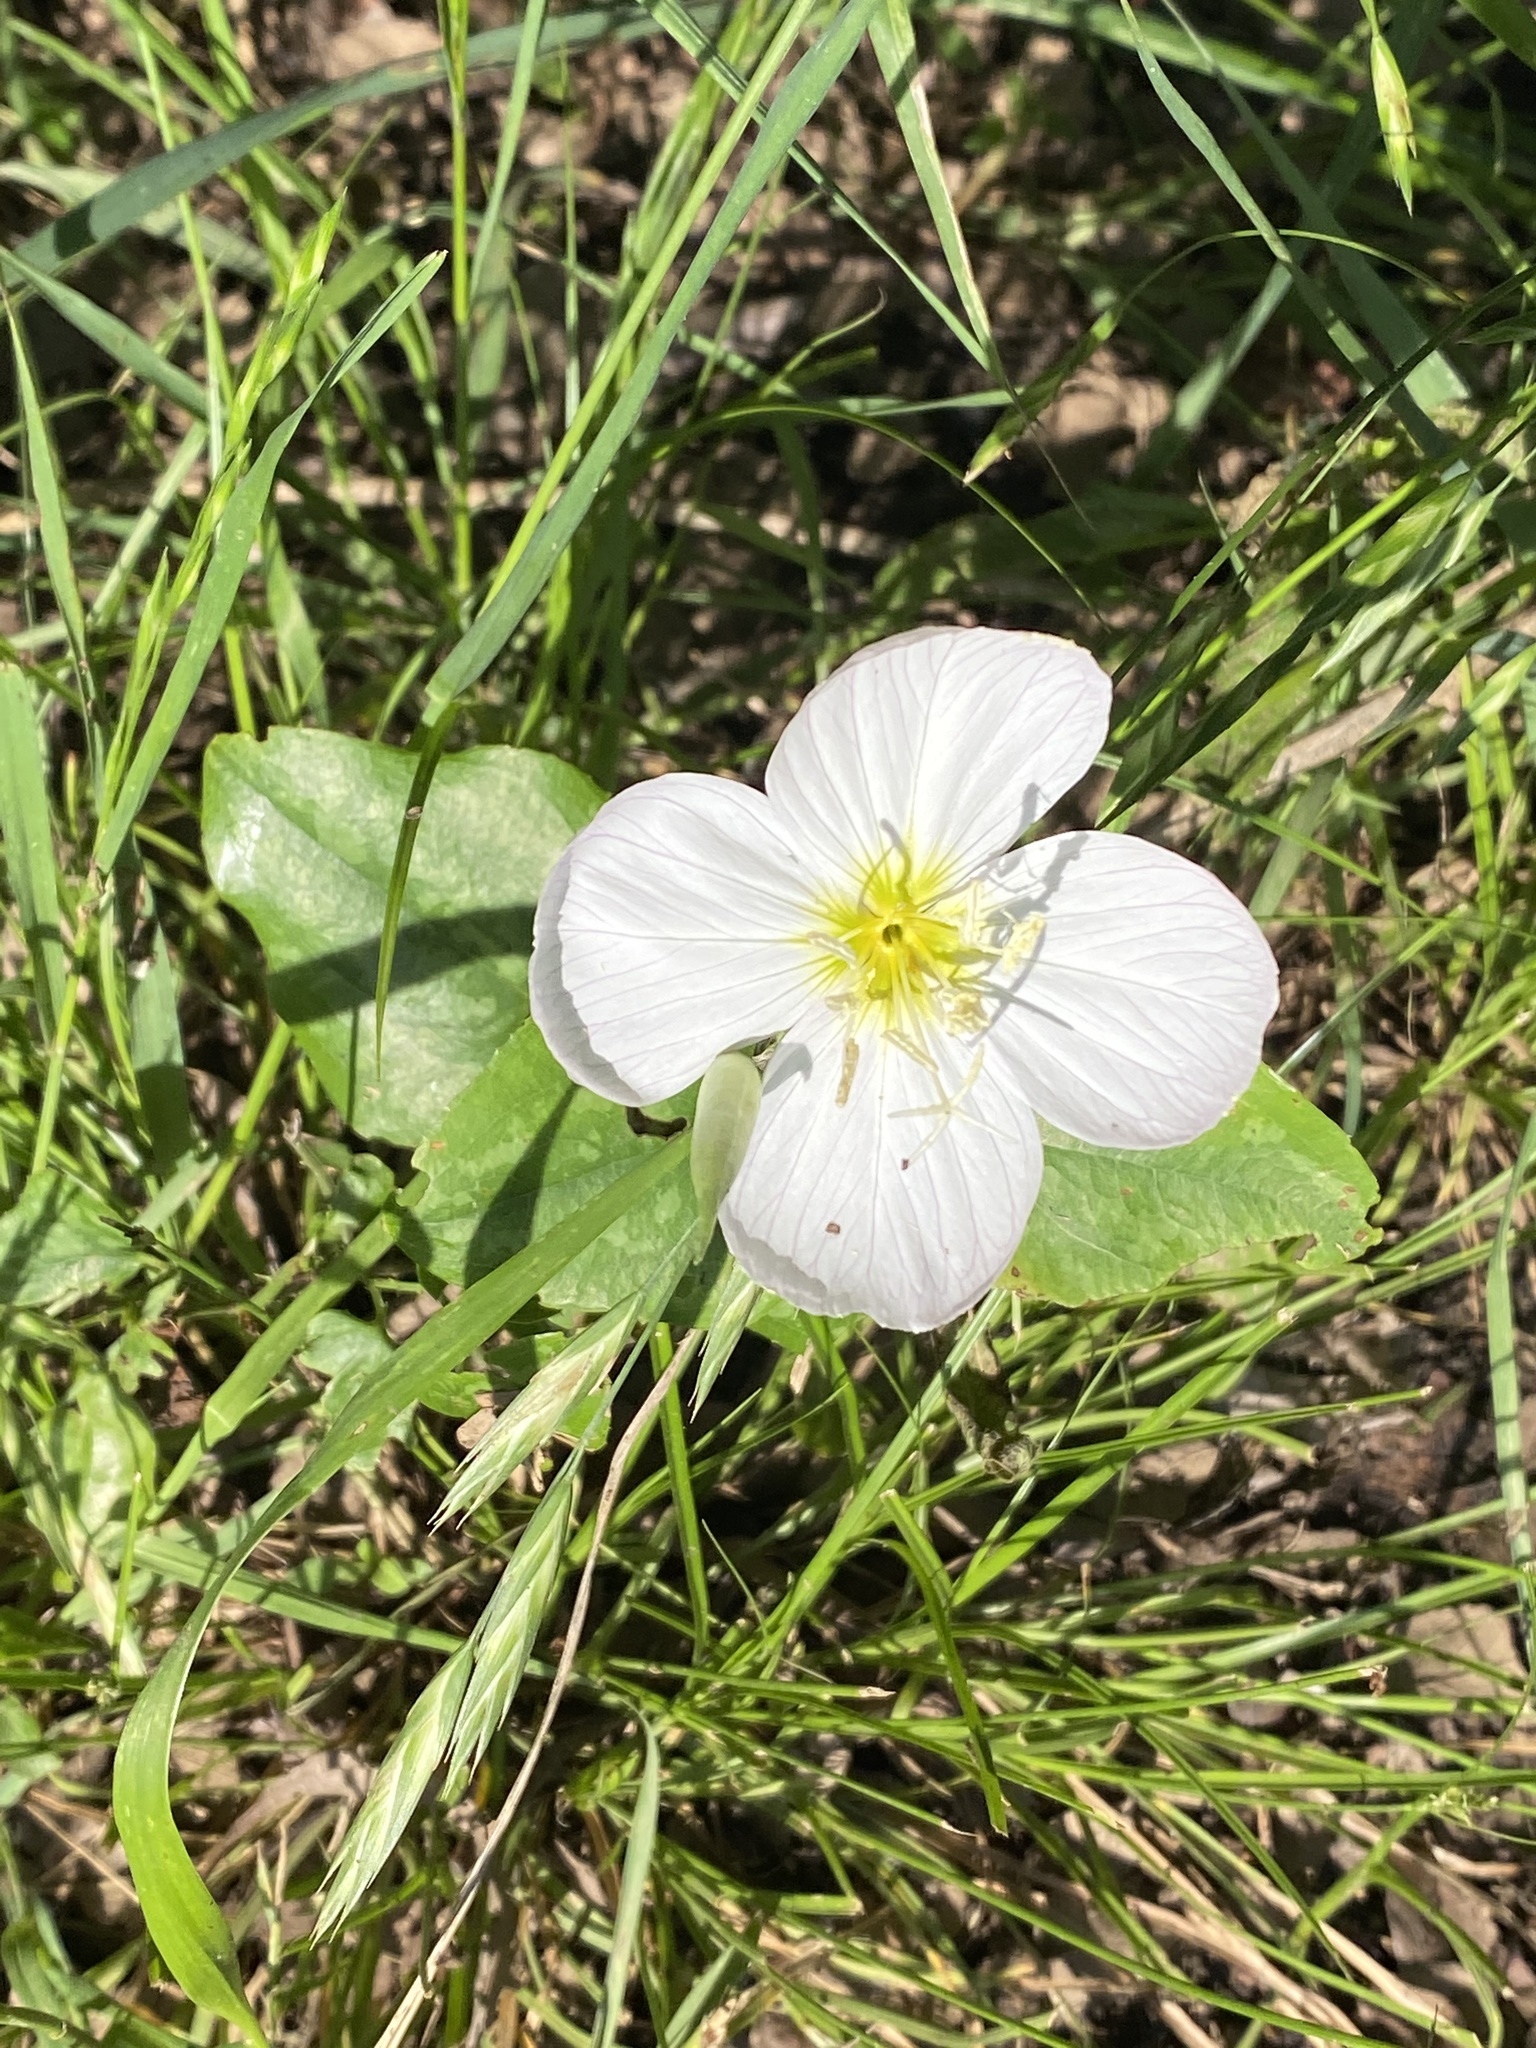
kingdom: Plantae
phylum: Tracheophyta
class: Magnoliopsida
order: Myrtales
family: Onagraceae
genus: Oenothera
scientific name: Oenothera speciosa
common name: White evening-primrose
